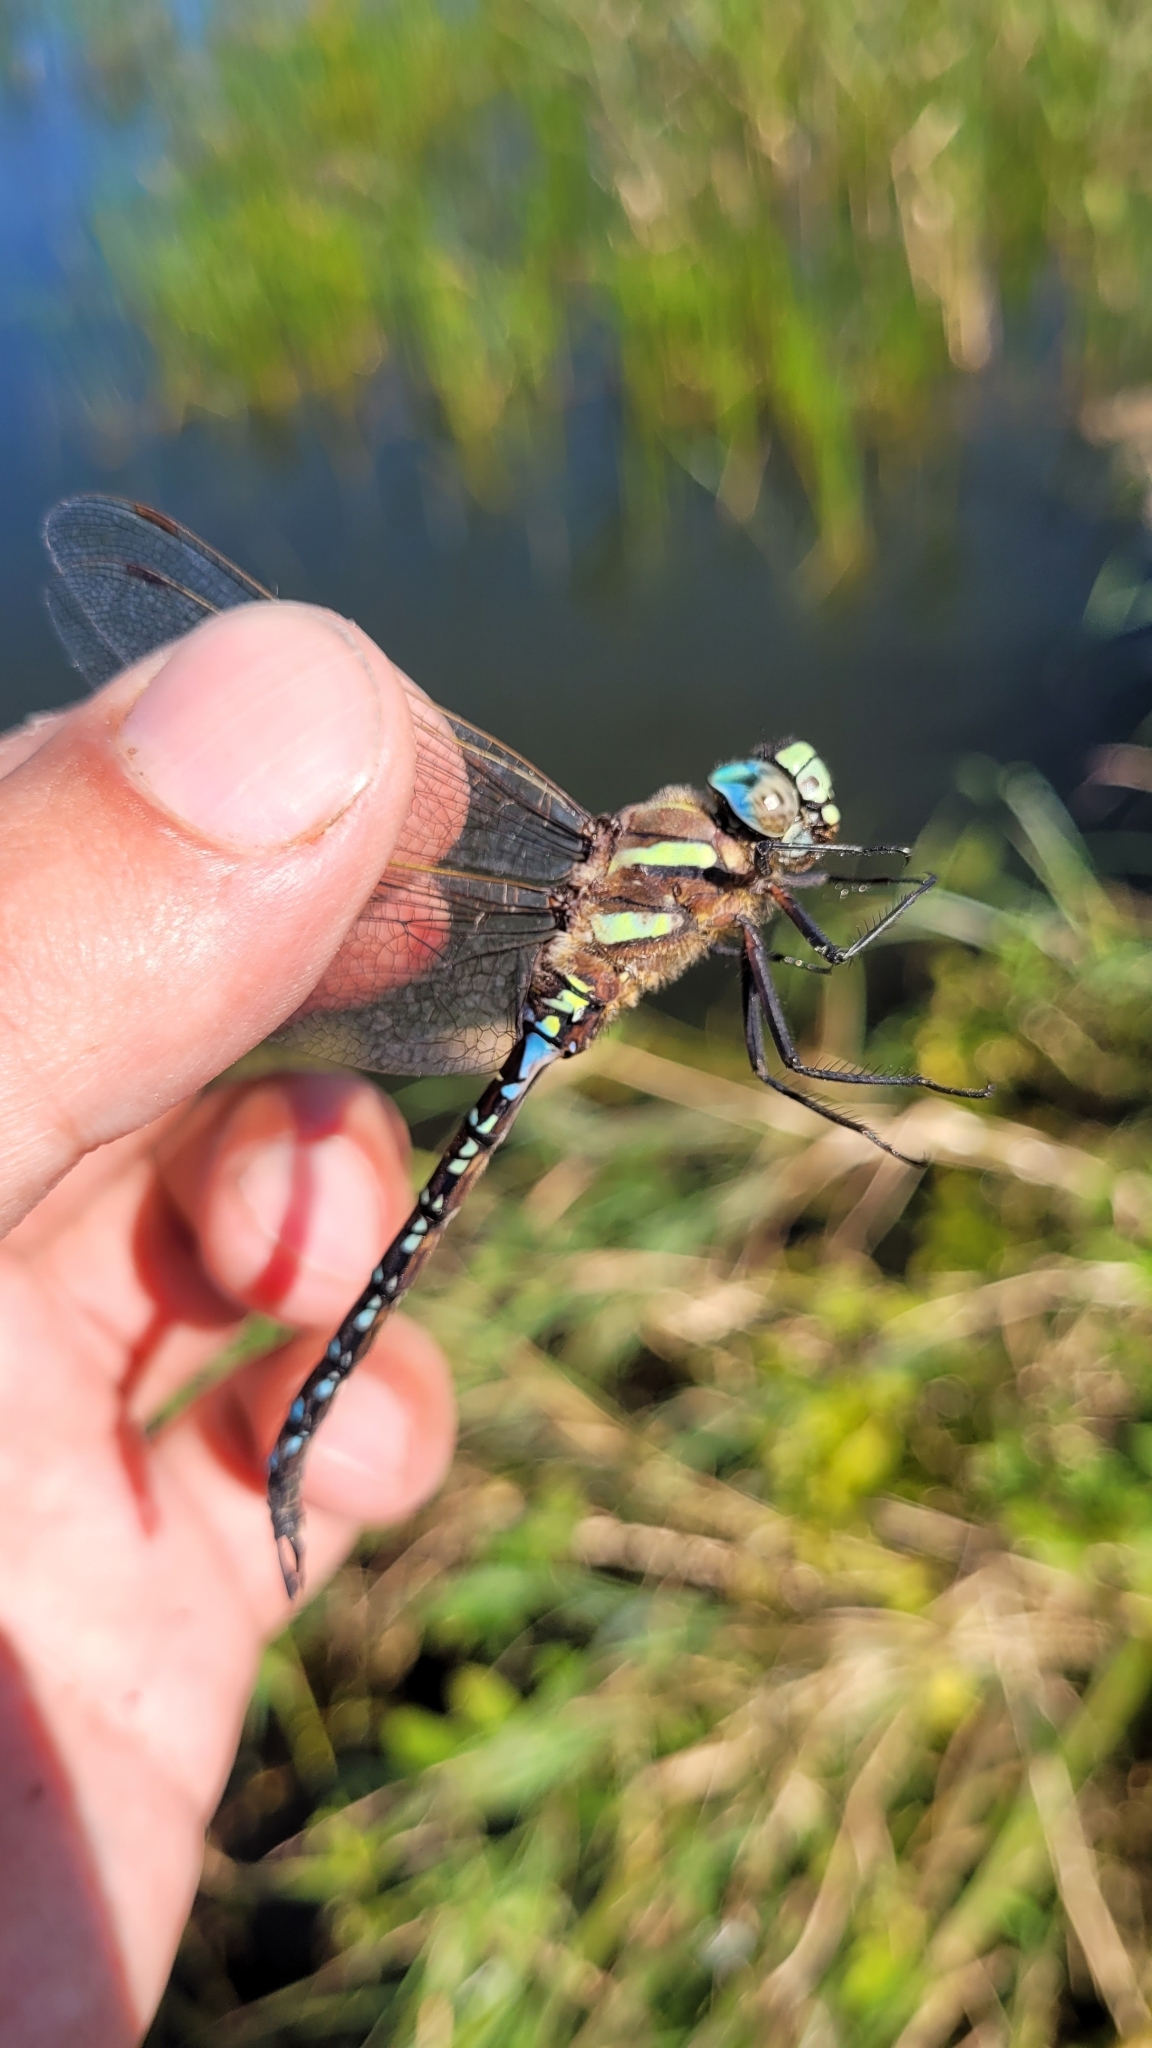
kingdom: Animalia
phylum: Arthropoda
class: Insecta
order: Odonata
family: Aeshnidae
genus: Aeshna
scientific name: Aeshna juncea
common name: Moorland hawker
